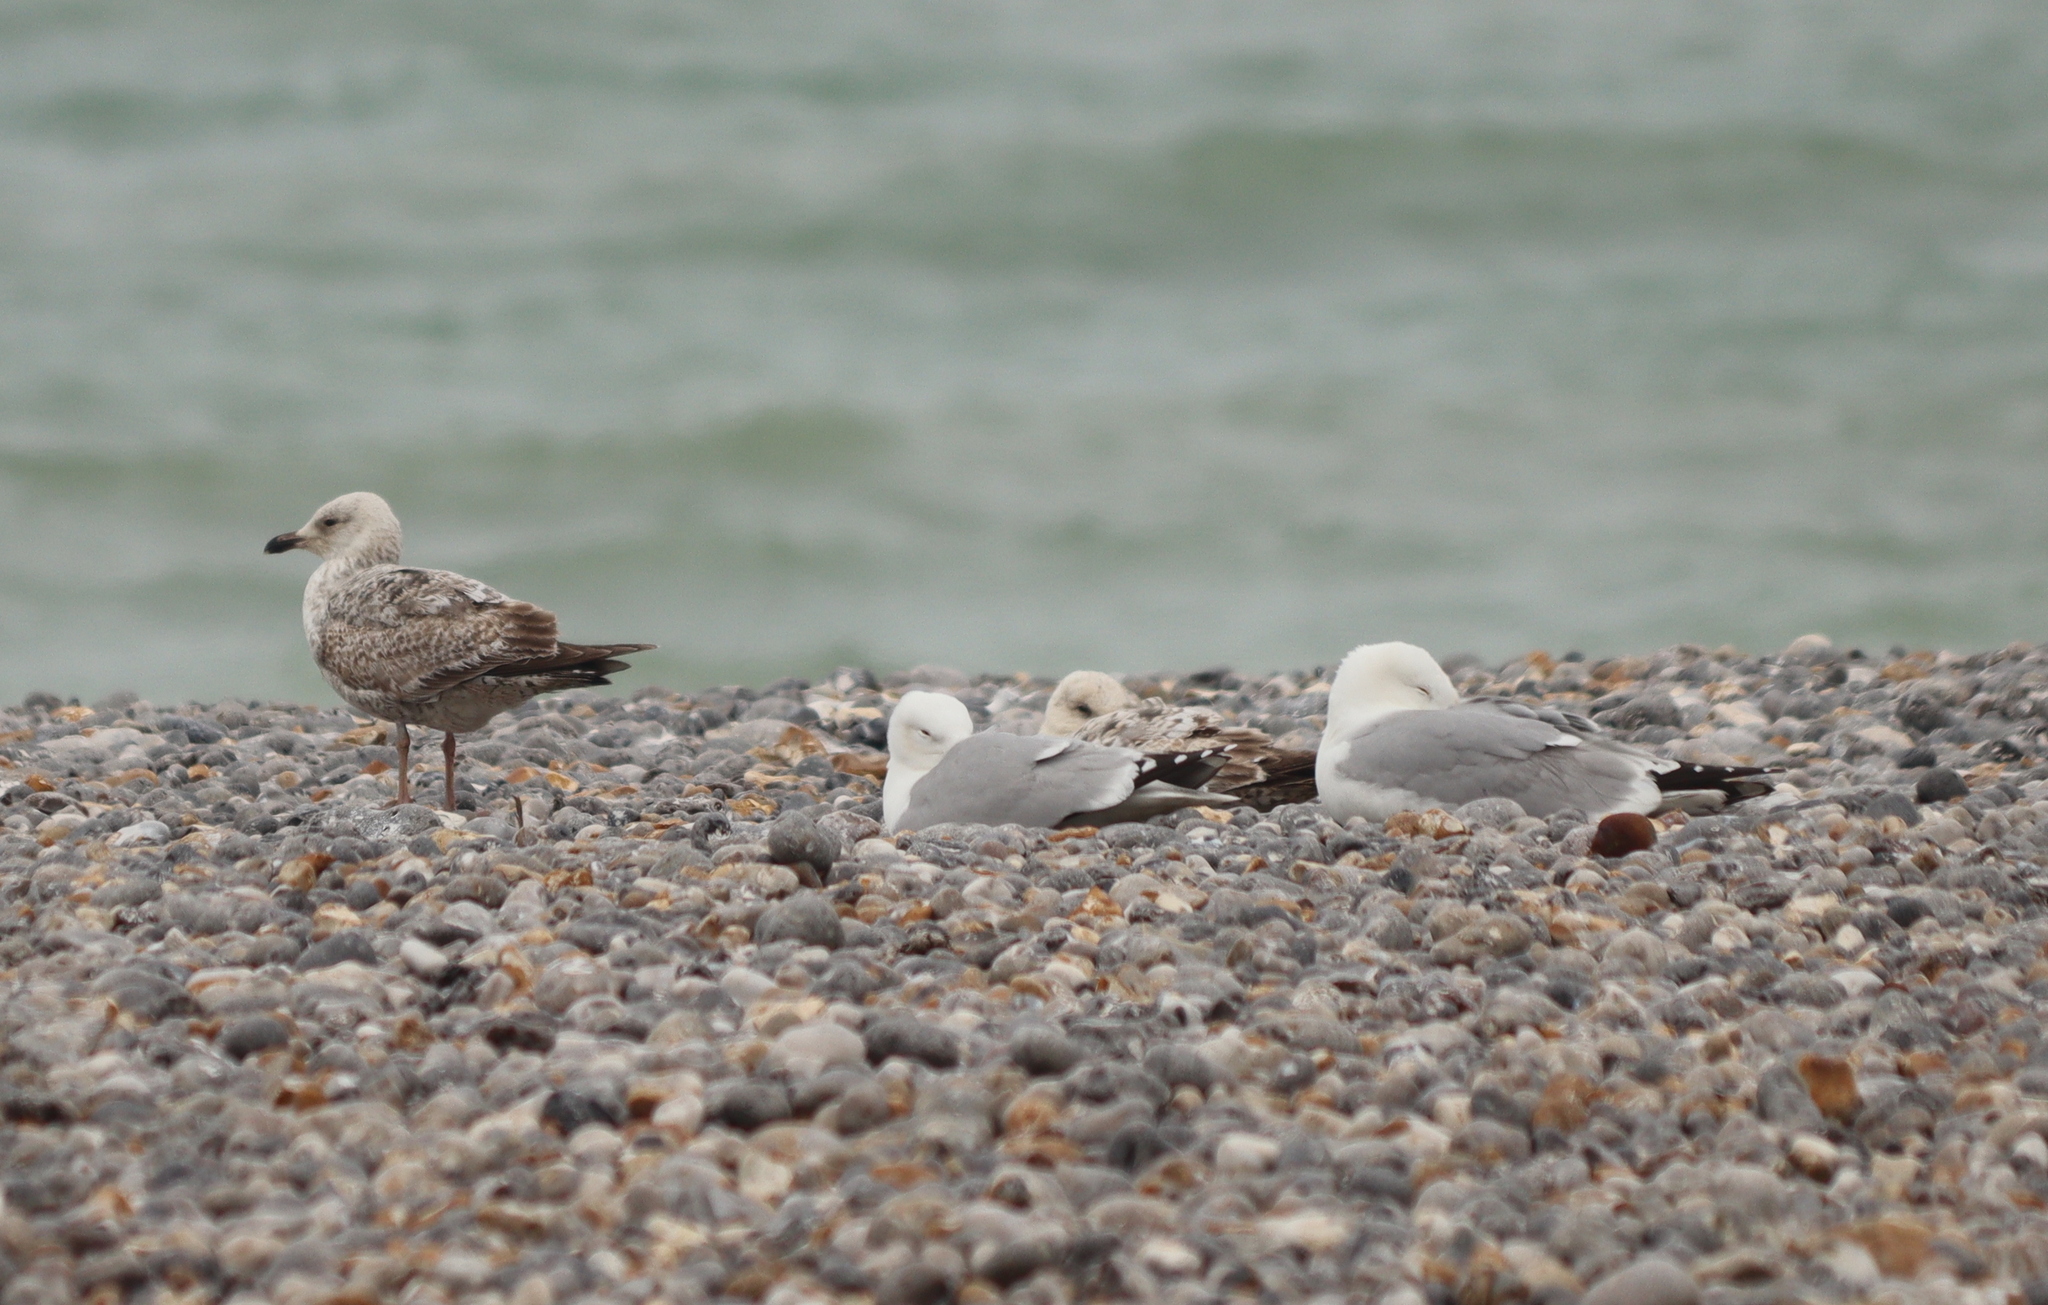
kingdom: Animalia
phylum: Chordata
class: Aves
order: Charadriiformes
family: Laridae
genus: Larus
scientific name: Larus argentatus
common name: Herring gull
